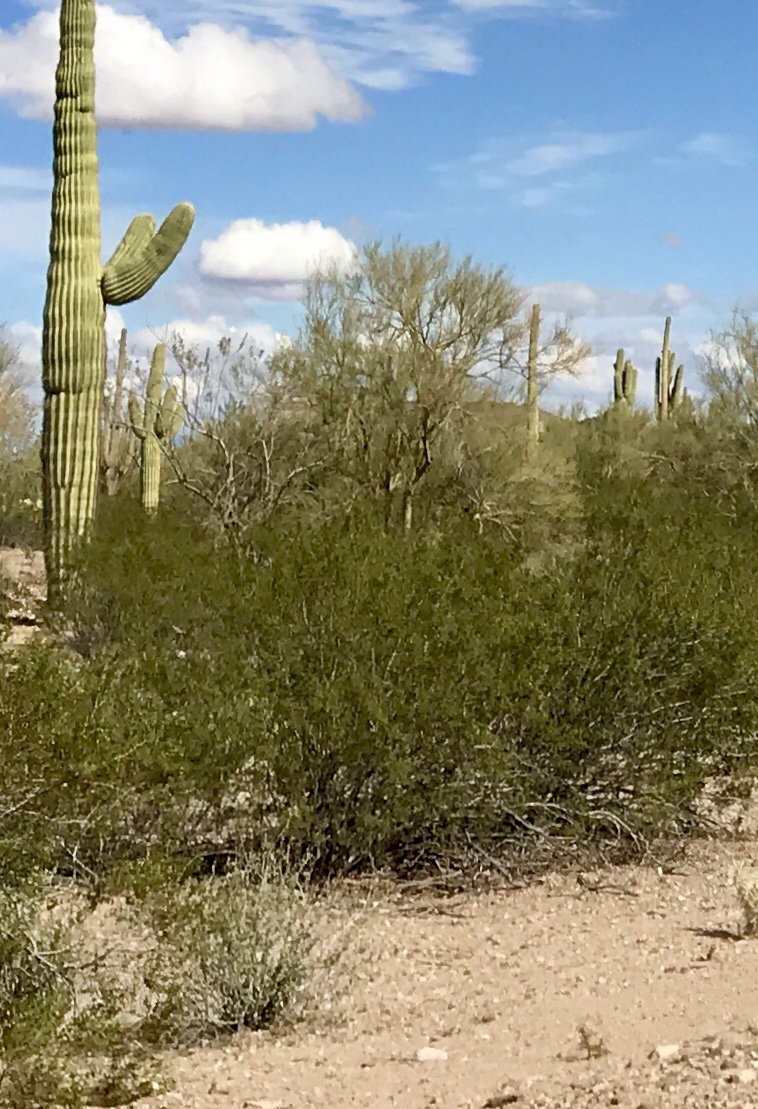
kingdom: Plantae
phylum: Tracheophyta
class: Magnoliopsida
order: Zygophyllales
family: Zygophyllaceae
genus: Larrea
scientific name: Larrea tridentata
